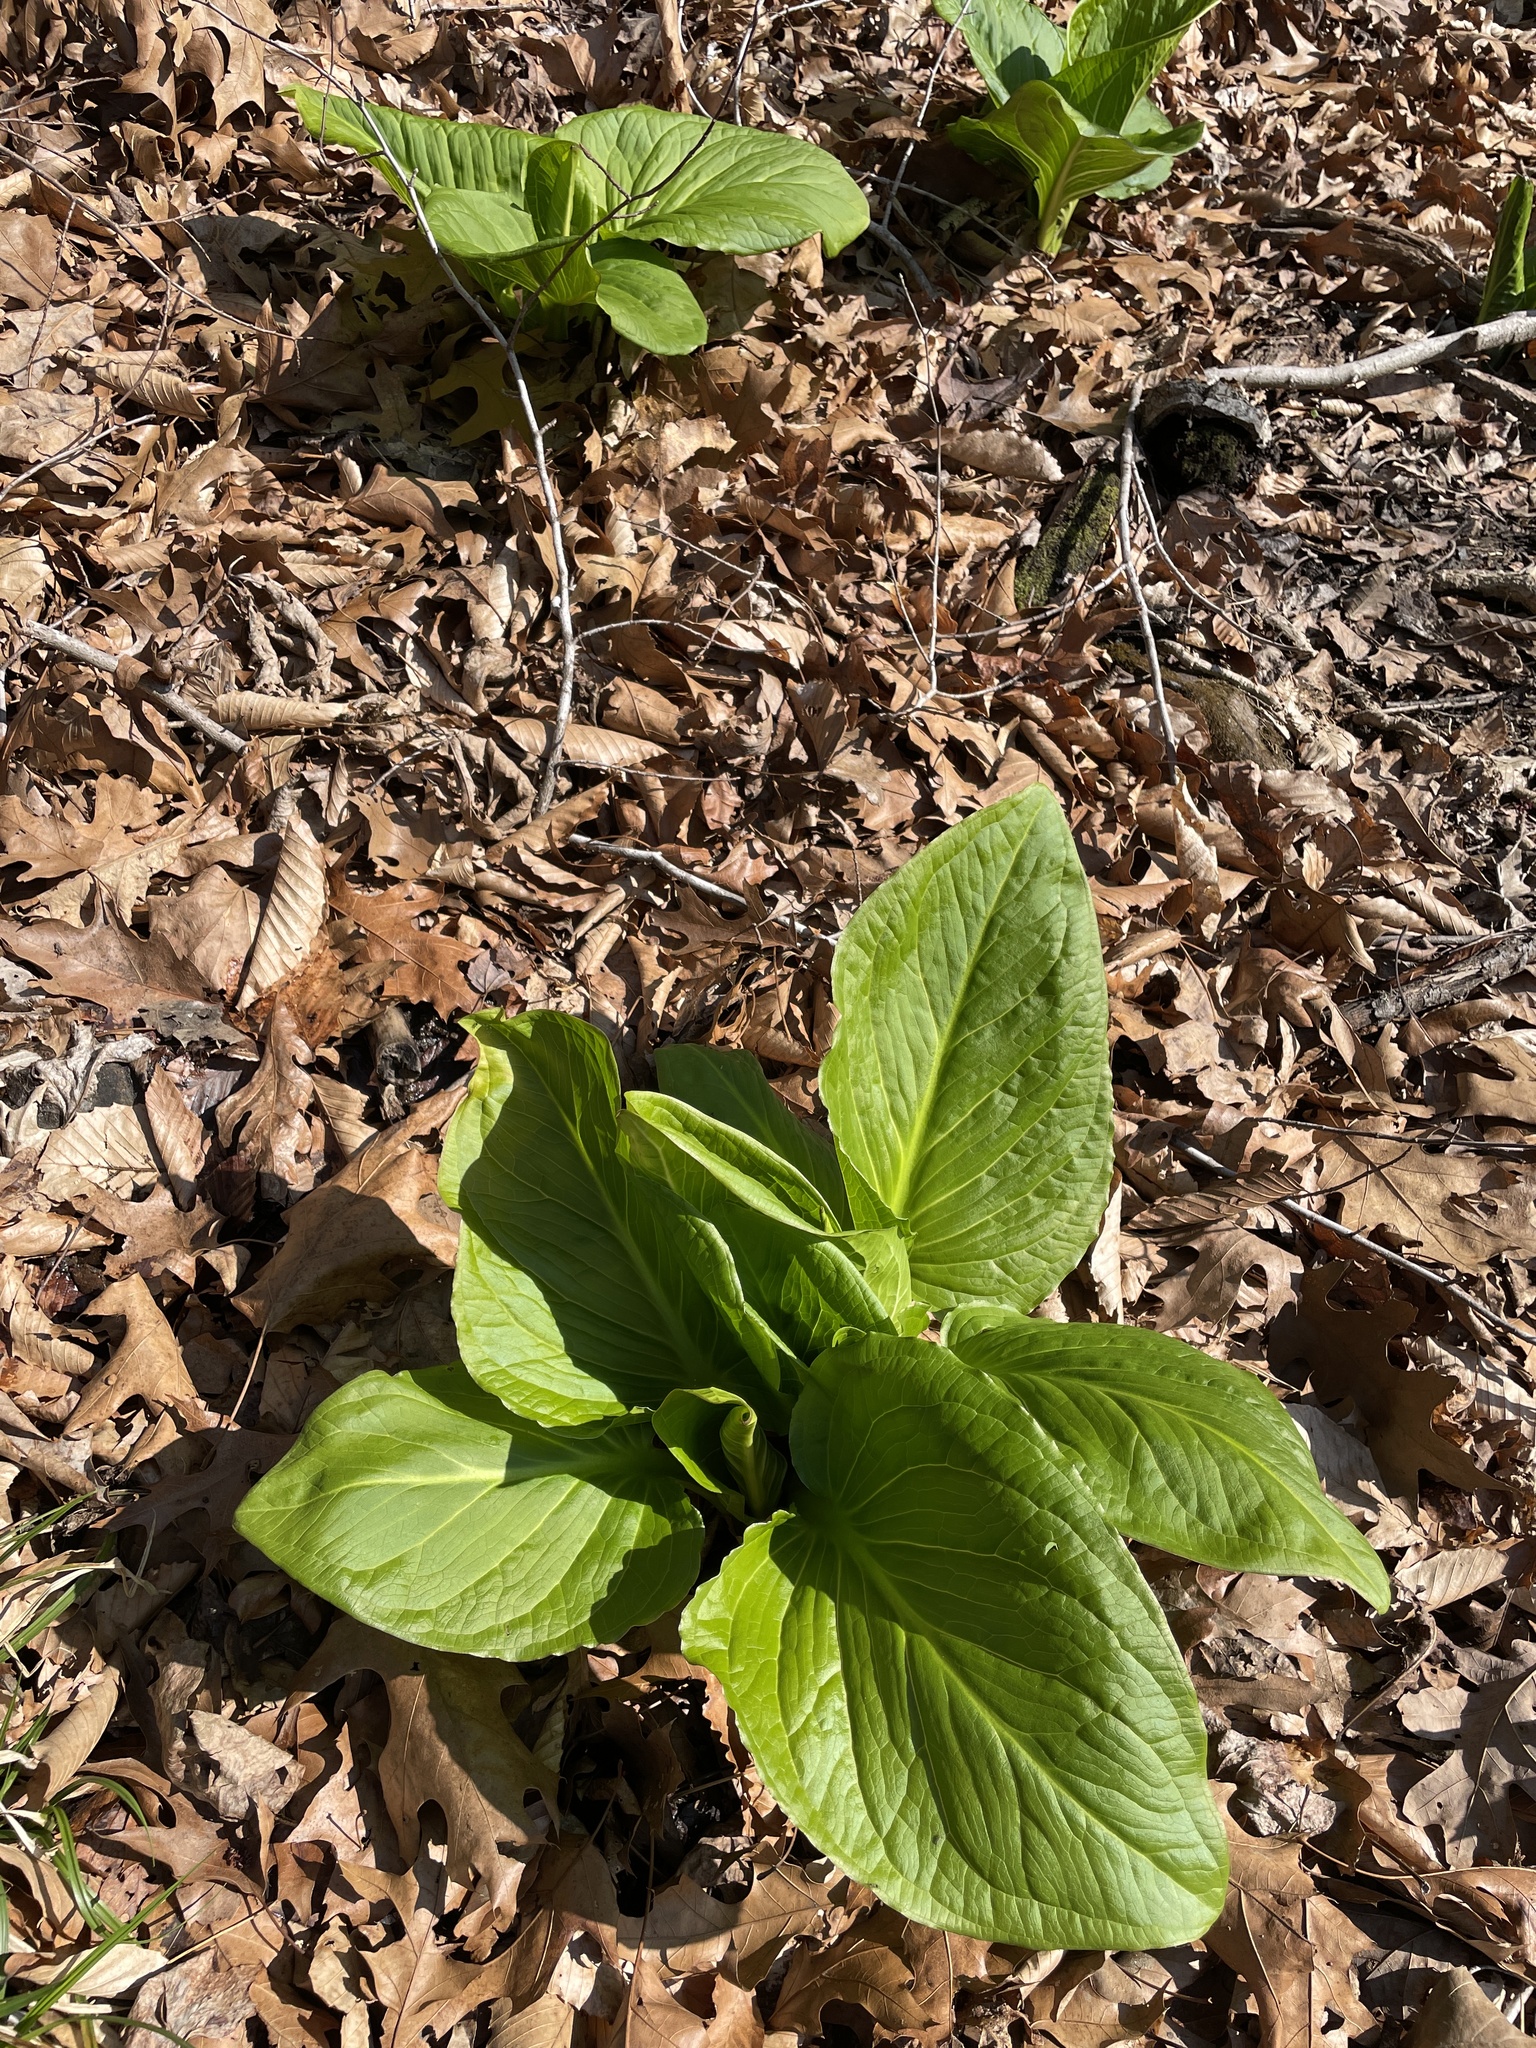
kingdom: Plantae
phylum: Tracheophyta
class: Liliopsida
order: Alismatales
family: Araceae
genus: Symplocarpus
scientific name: Symplocarpus foetidus
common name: Eastern skunk cabbage
